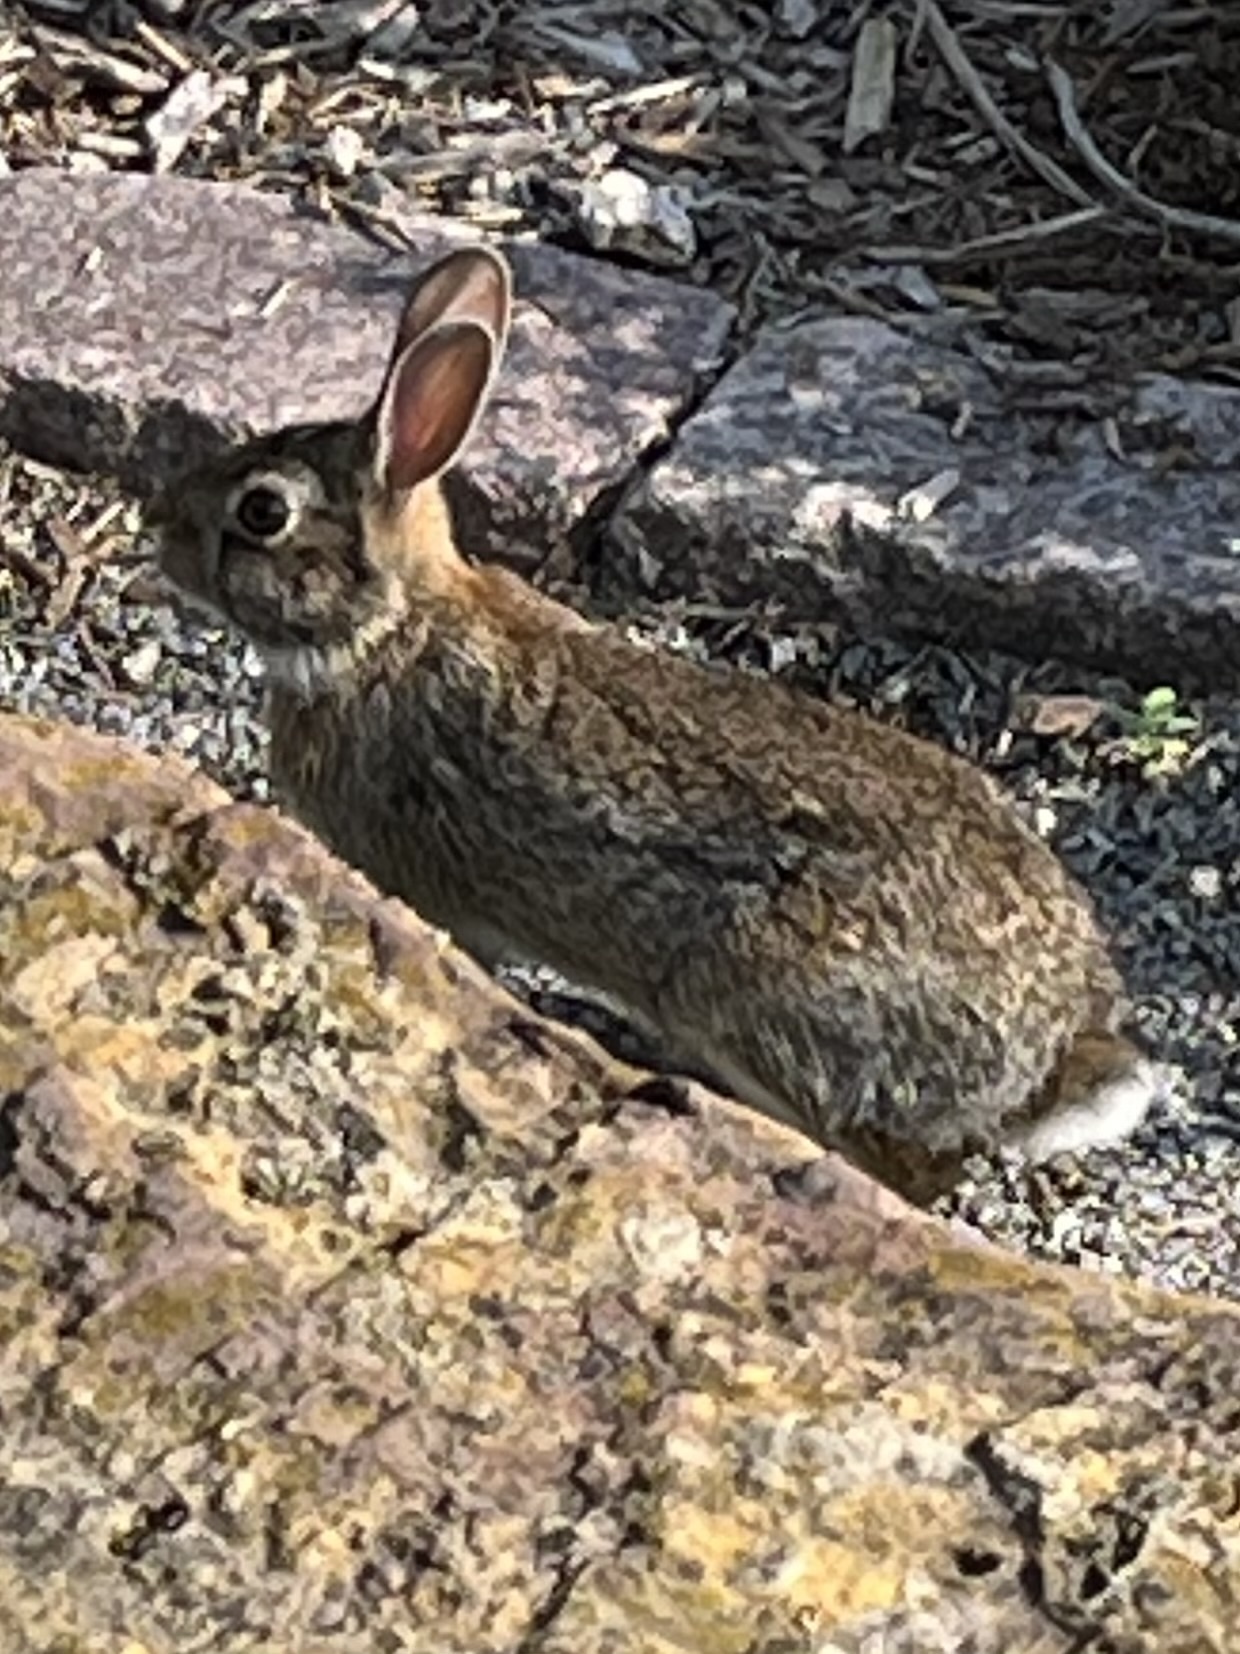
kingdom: Animalia
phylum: Chordata
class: Mammalia
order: Lagomorpha
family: Leporidae
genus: Sylvilagus
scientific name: Sylvilagus floridanus
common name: Eastern cottontail
